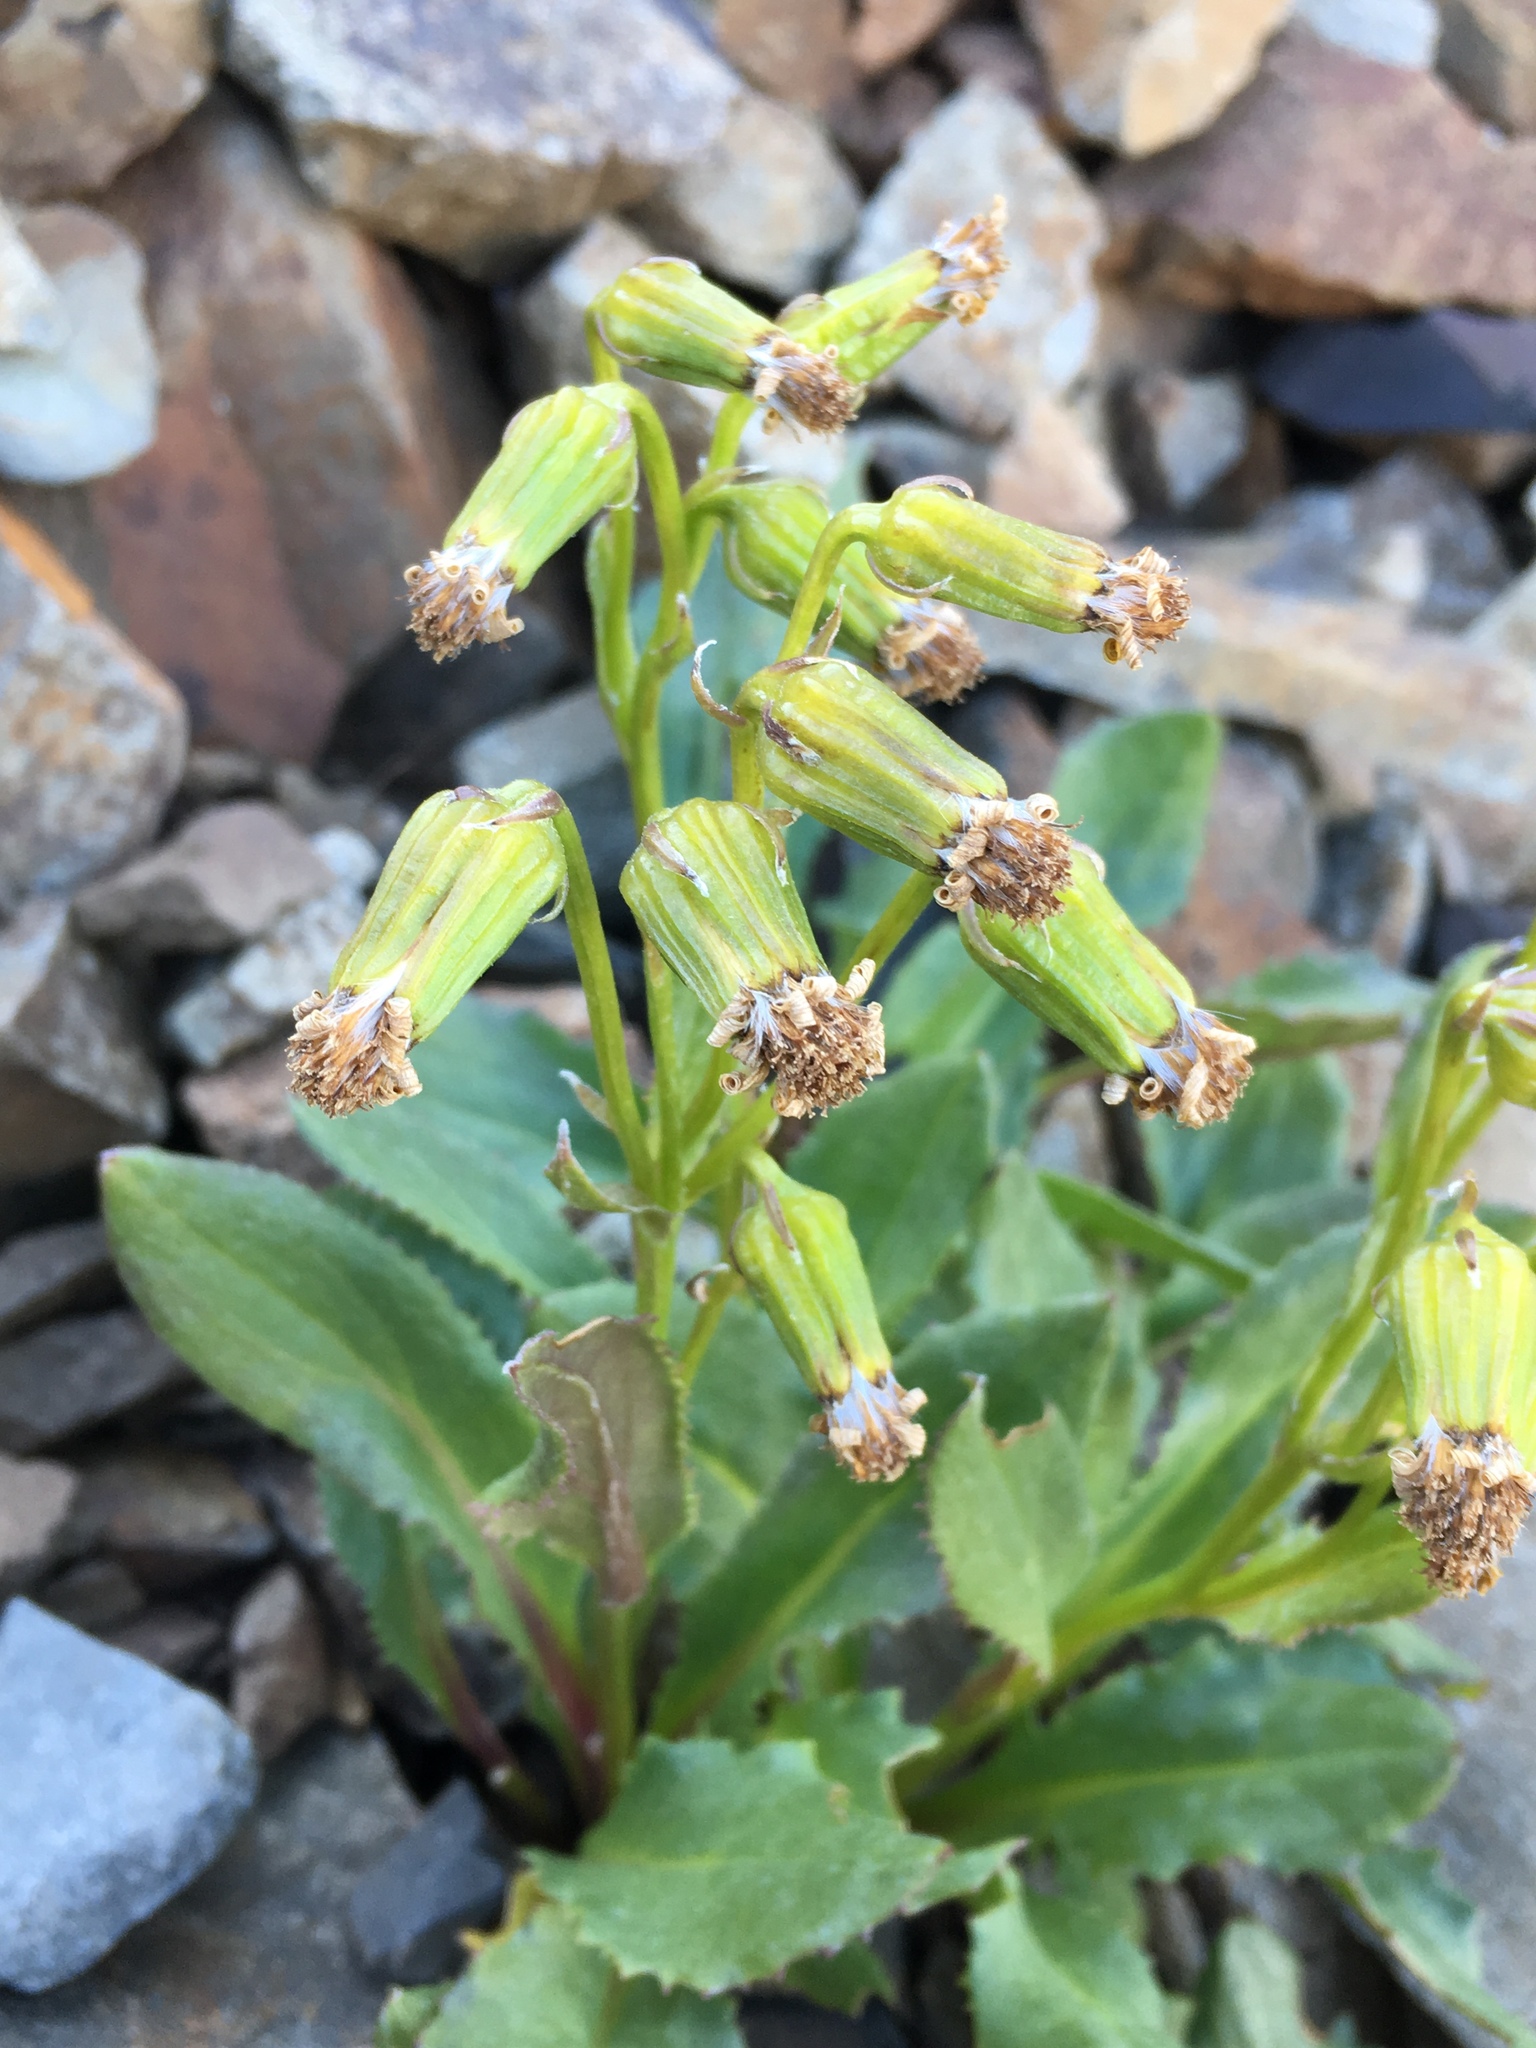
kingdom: Plantae
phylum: Tracheophyta
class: Magnoliopsida
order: Asterales
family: Asteraceae
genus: Senecio
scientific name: Senecio elmeri
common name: Elmer's butterweed
